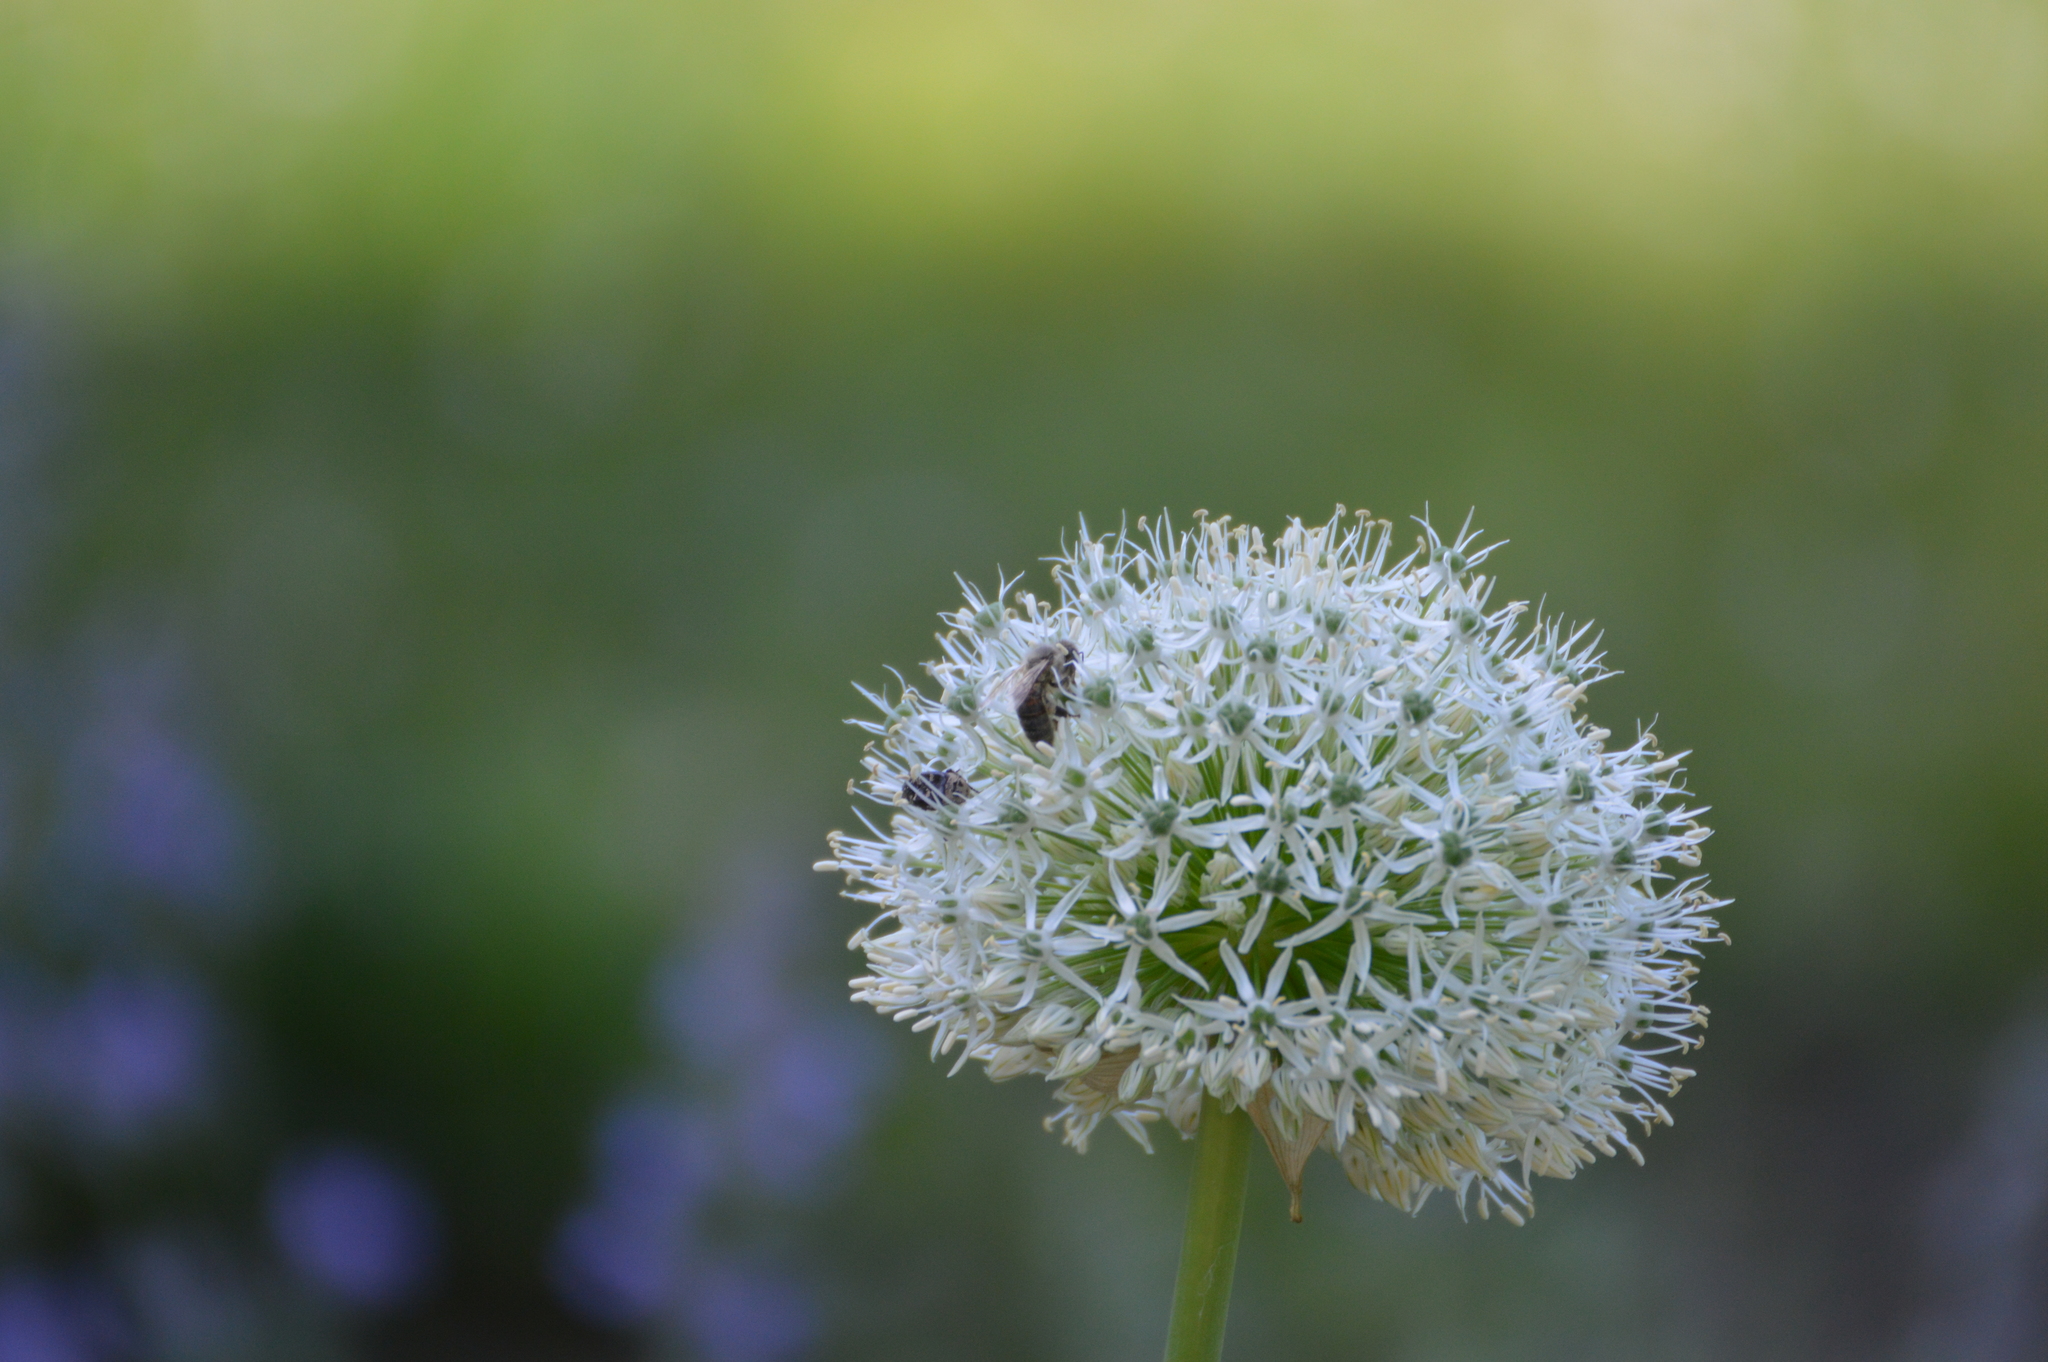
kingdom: Animalia
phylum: Arthropoda
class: Insecta
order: Hymenoptera
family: Apidae
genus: Apis
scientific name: Apis mellifera
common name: Honey bee
